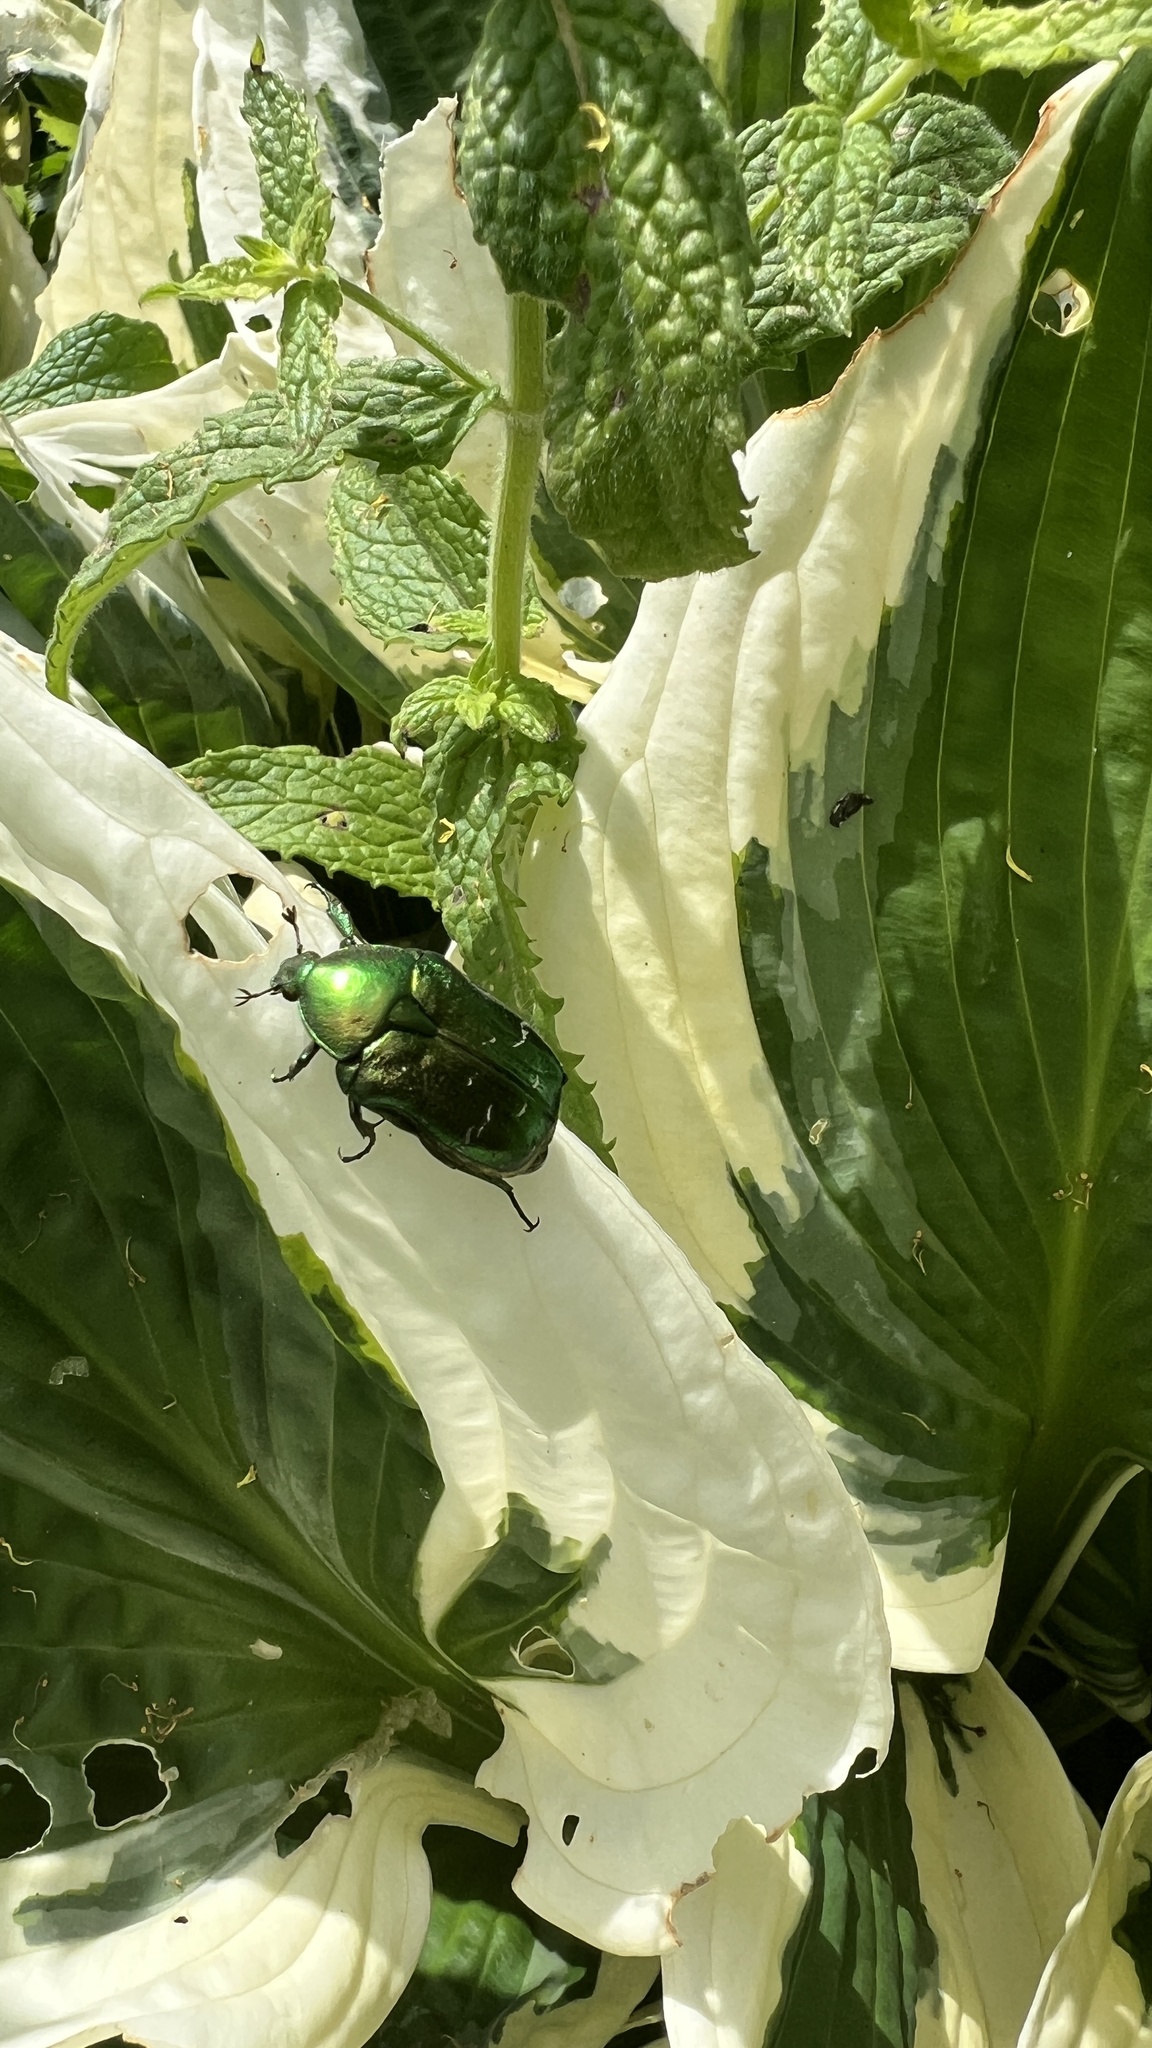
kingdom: Animalia
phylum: Arthropoda
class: Insecta
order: Coleoptera
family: Scarabaeidae
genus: Cetonia
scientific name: Cetonia aurata
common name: Rose chafer
